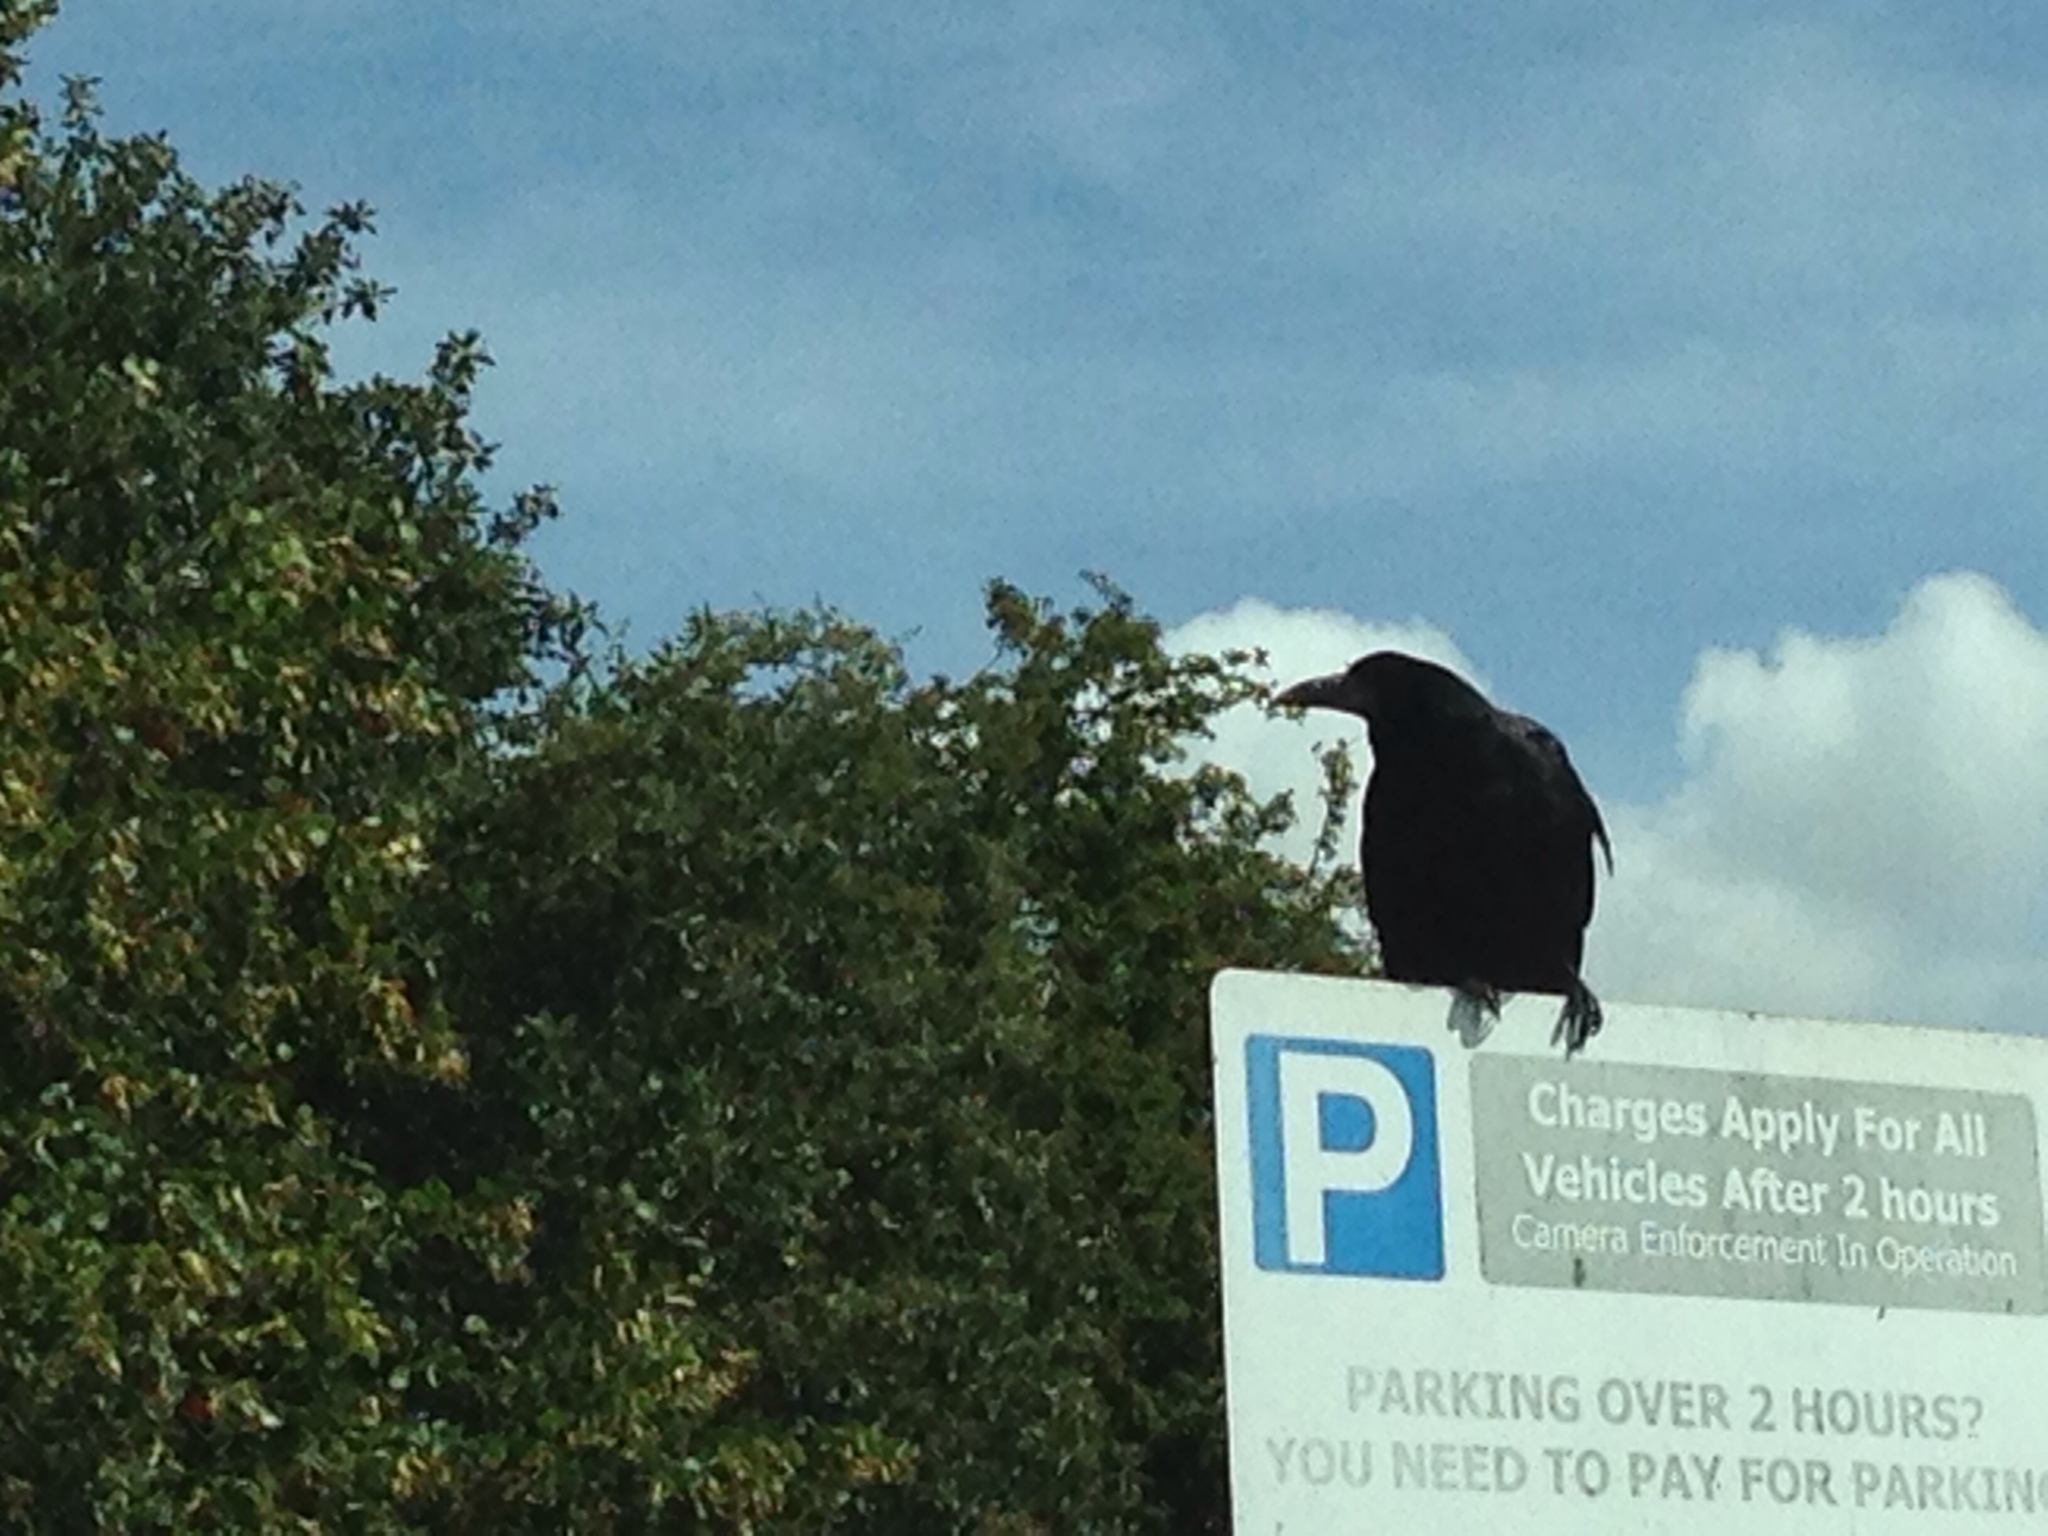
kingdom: Animalia
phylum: Chordata
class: Aves
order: Passeriformes
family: Corvidae
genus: Corvus
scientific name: Corvus frugilegus
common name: Rook
